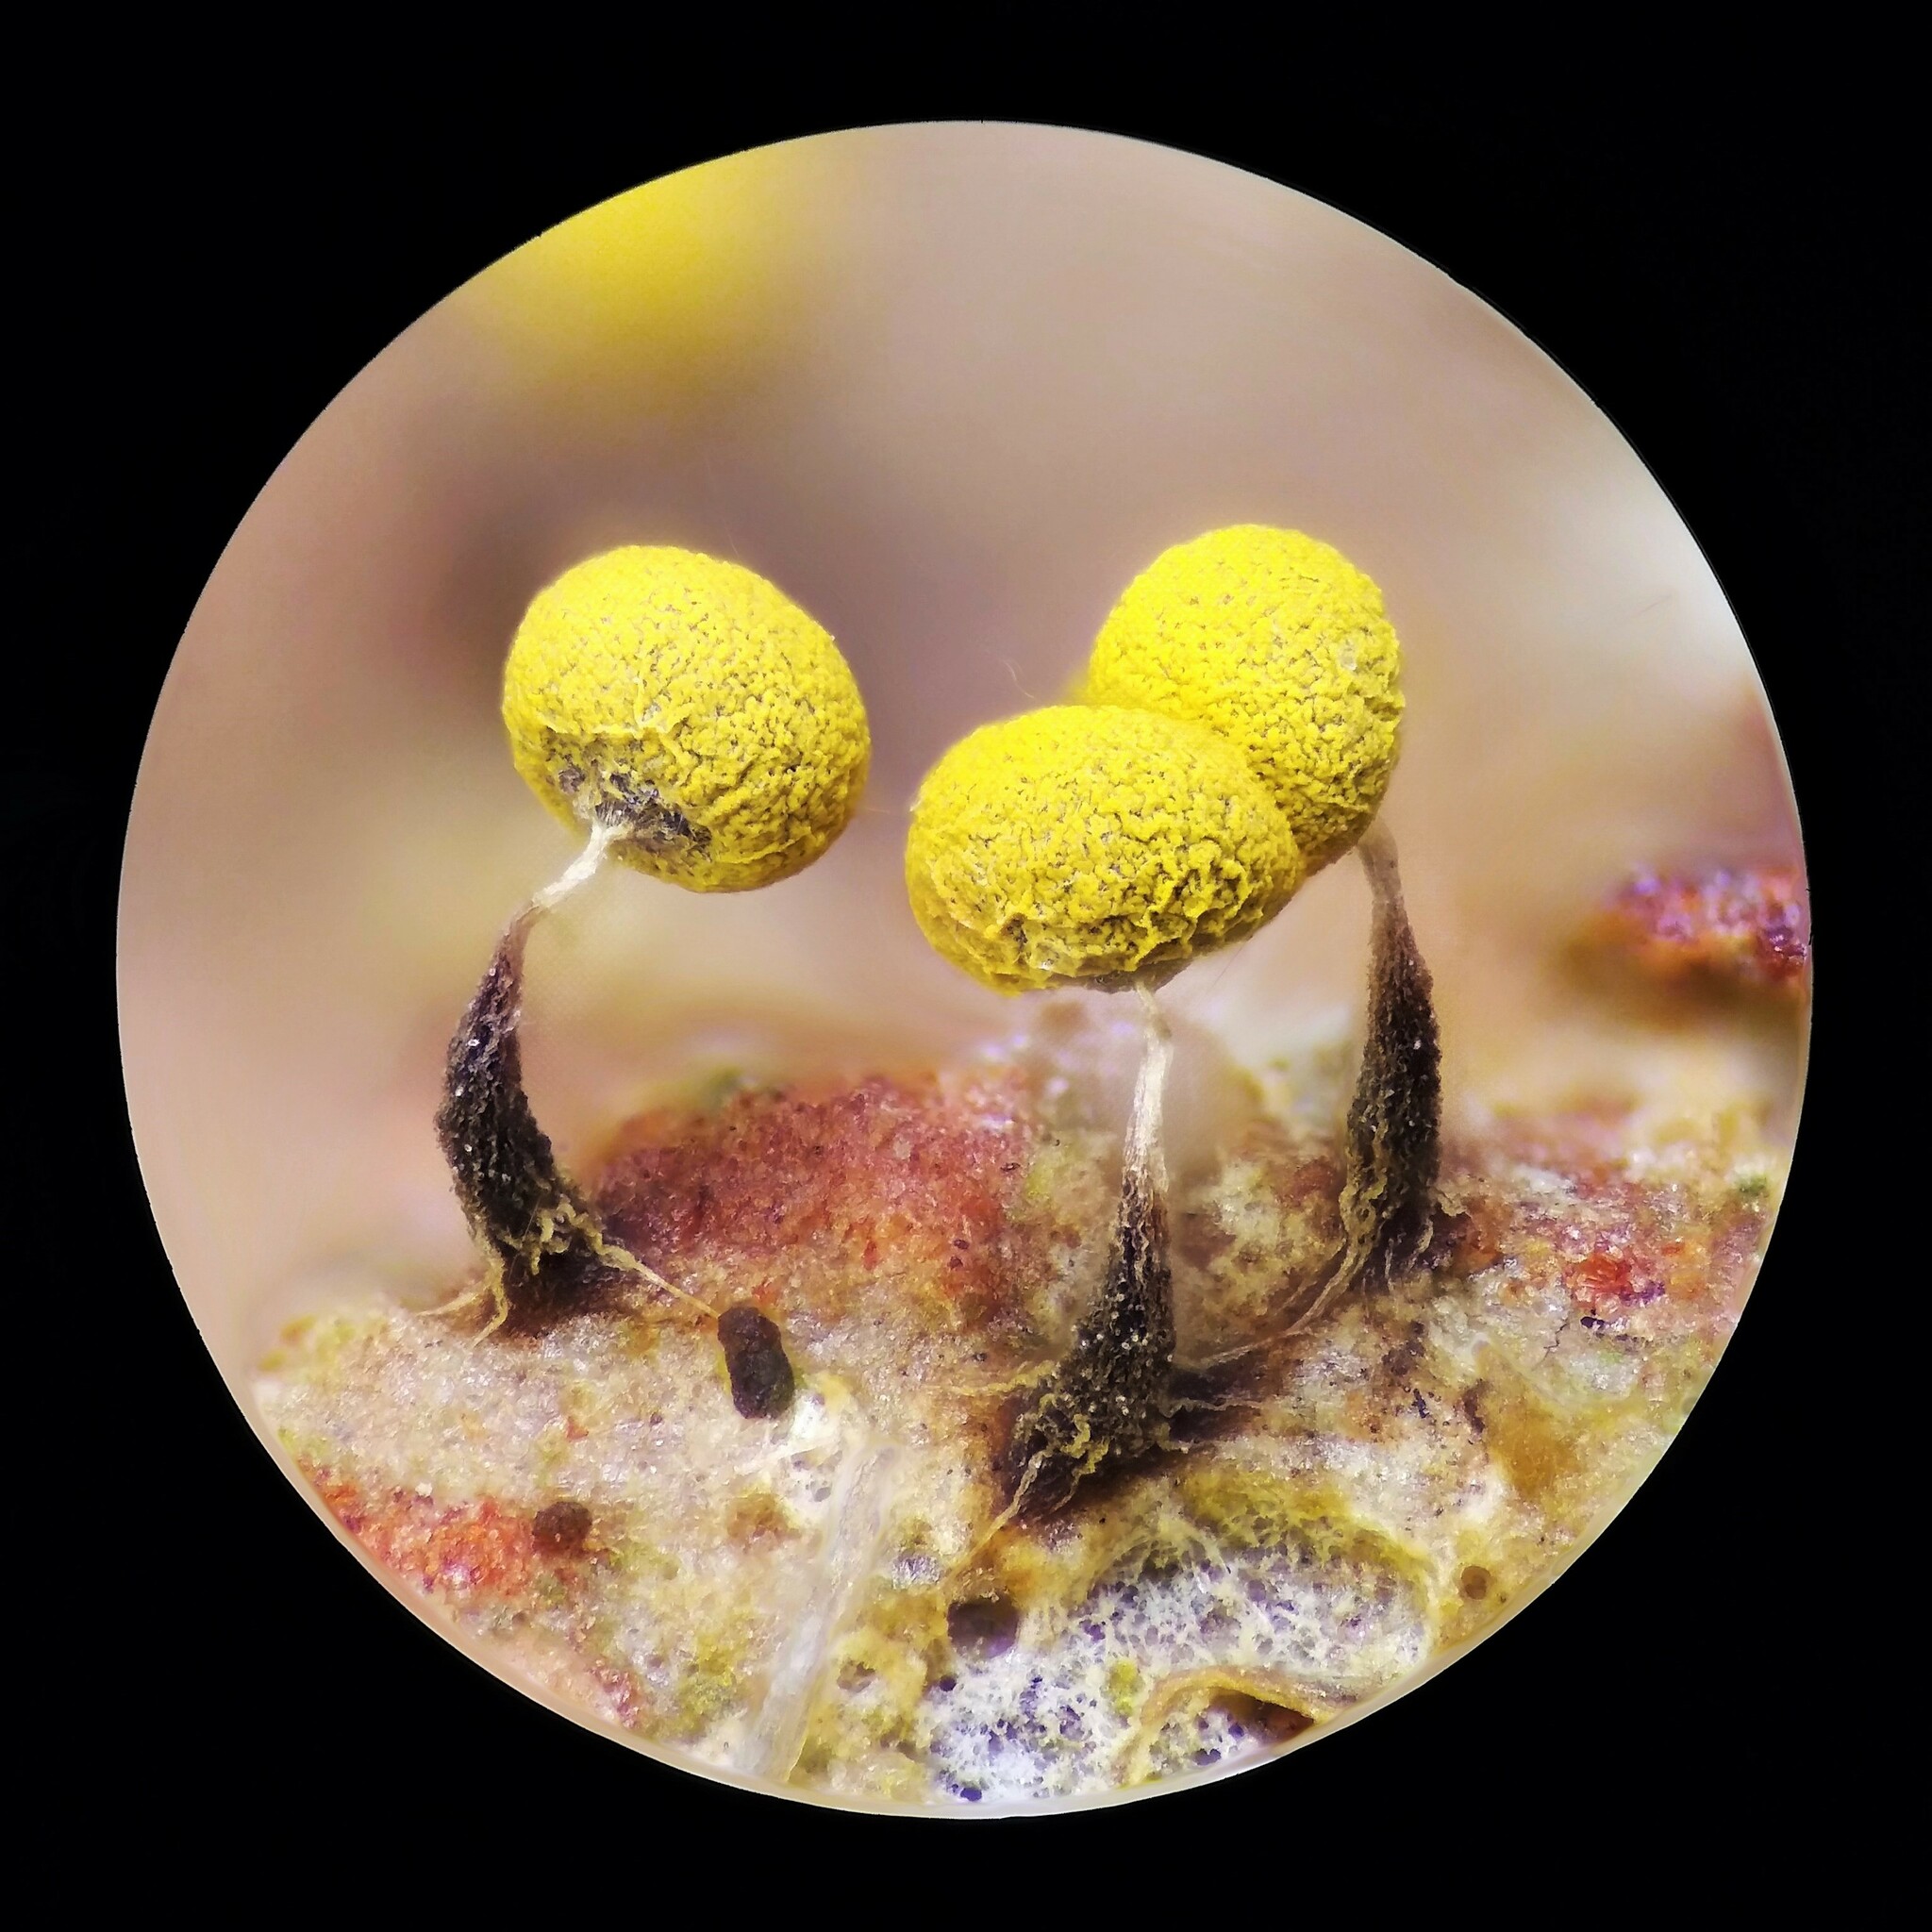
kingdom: Protozoa
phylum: Mycetozoa
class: Myxomycetes
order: Physarales
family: Physaraceae
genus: Physarum
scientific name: Physarum viride
